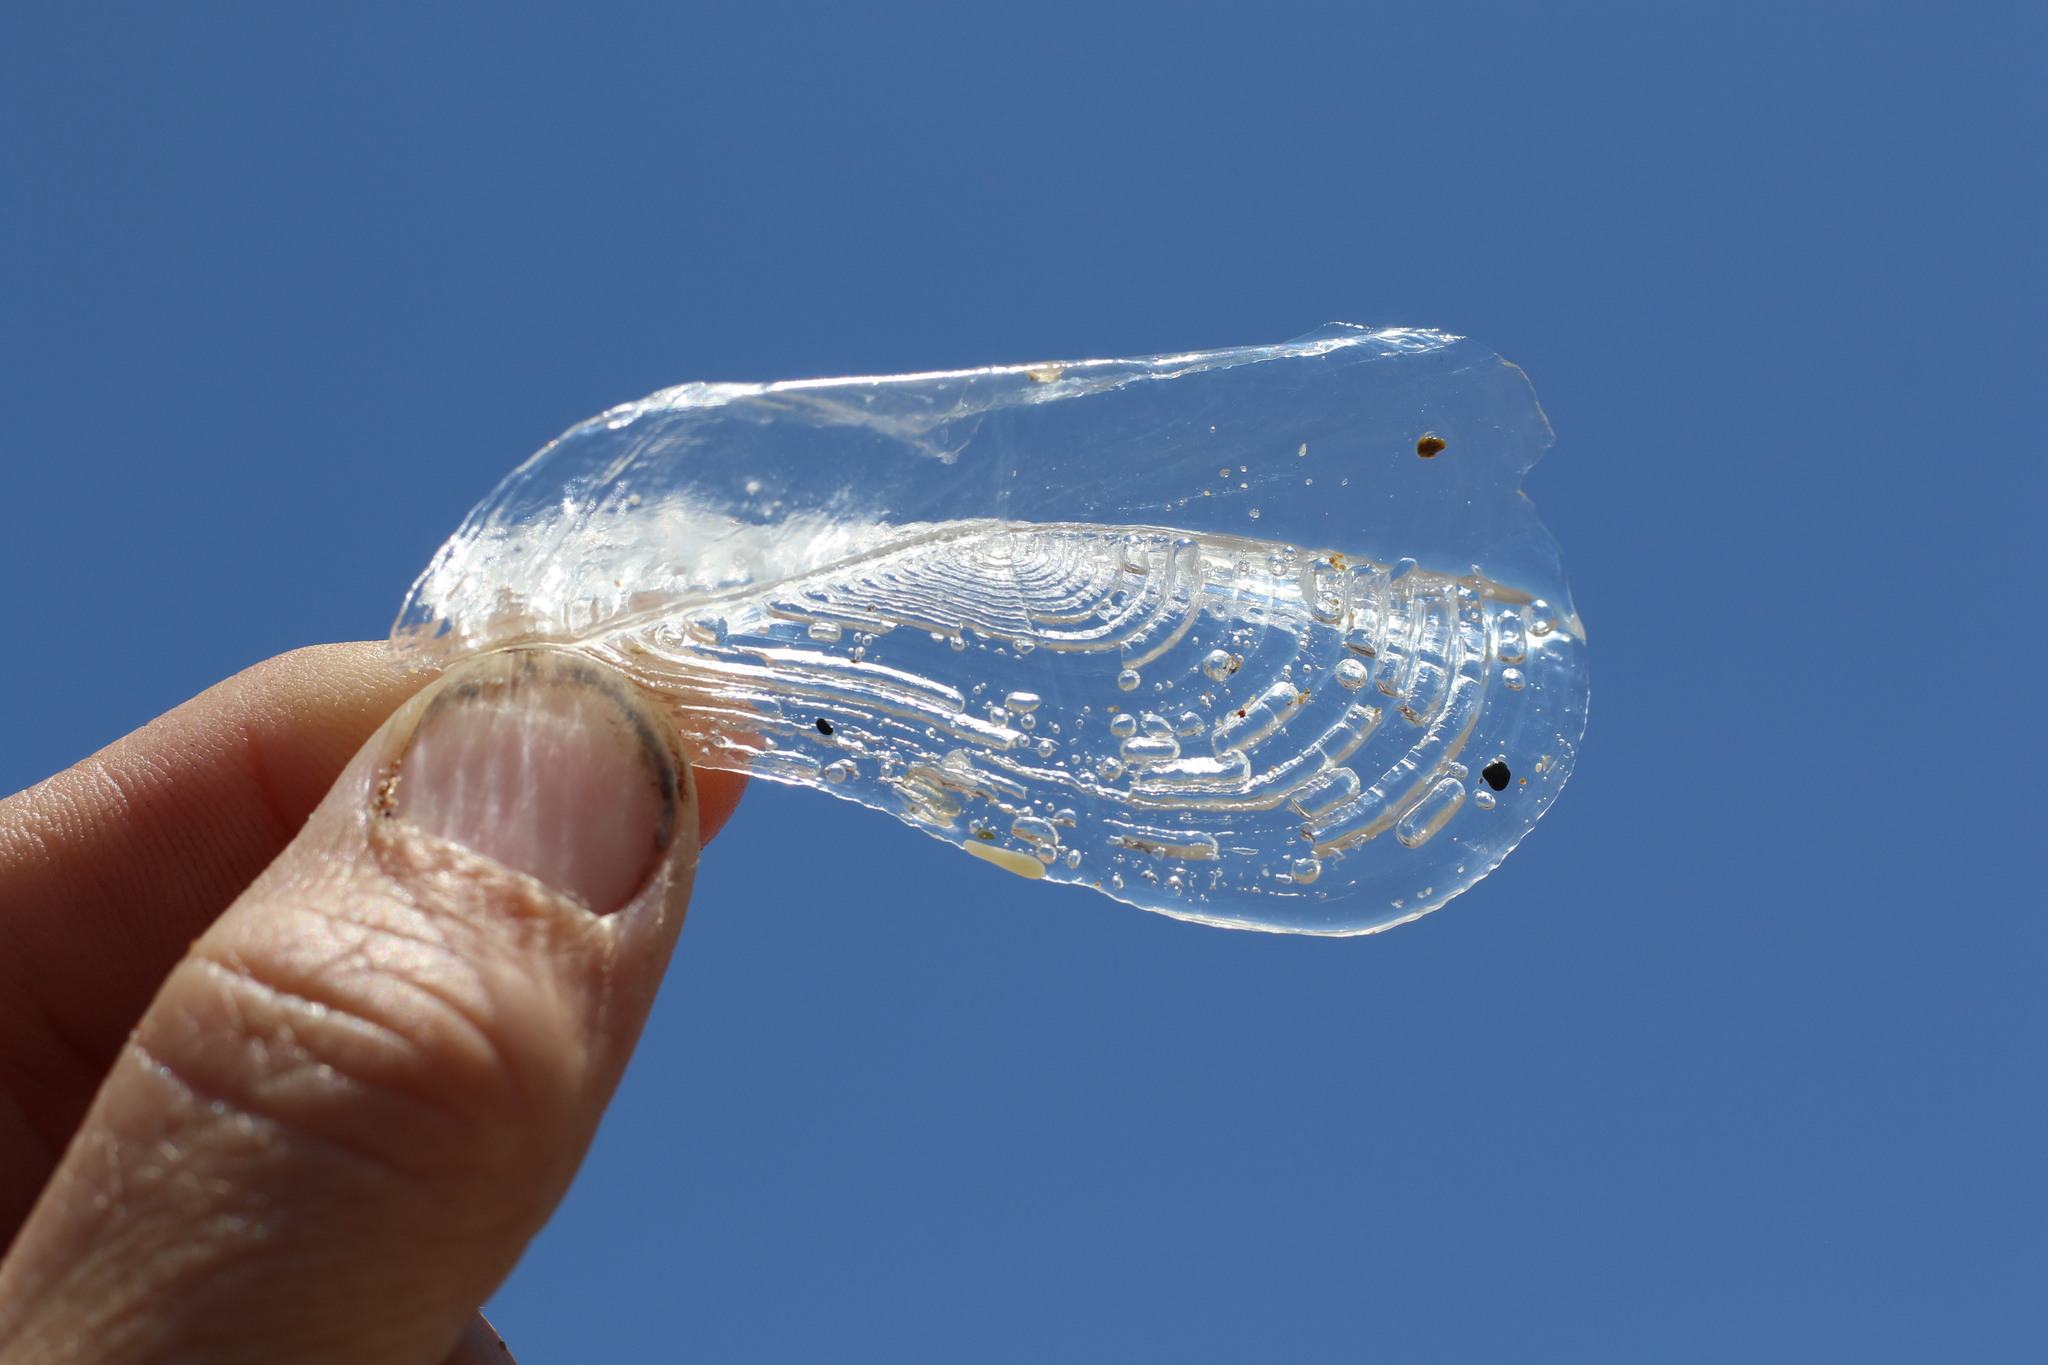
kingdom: Animalia
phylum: Cnidaria
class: Hydrozoa
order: Anthoathecata
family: Porpitidae
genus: Velella
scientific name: Velella velella
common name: By-the-wind-sailor
